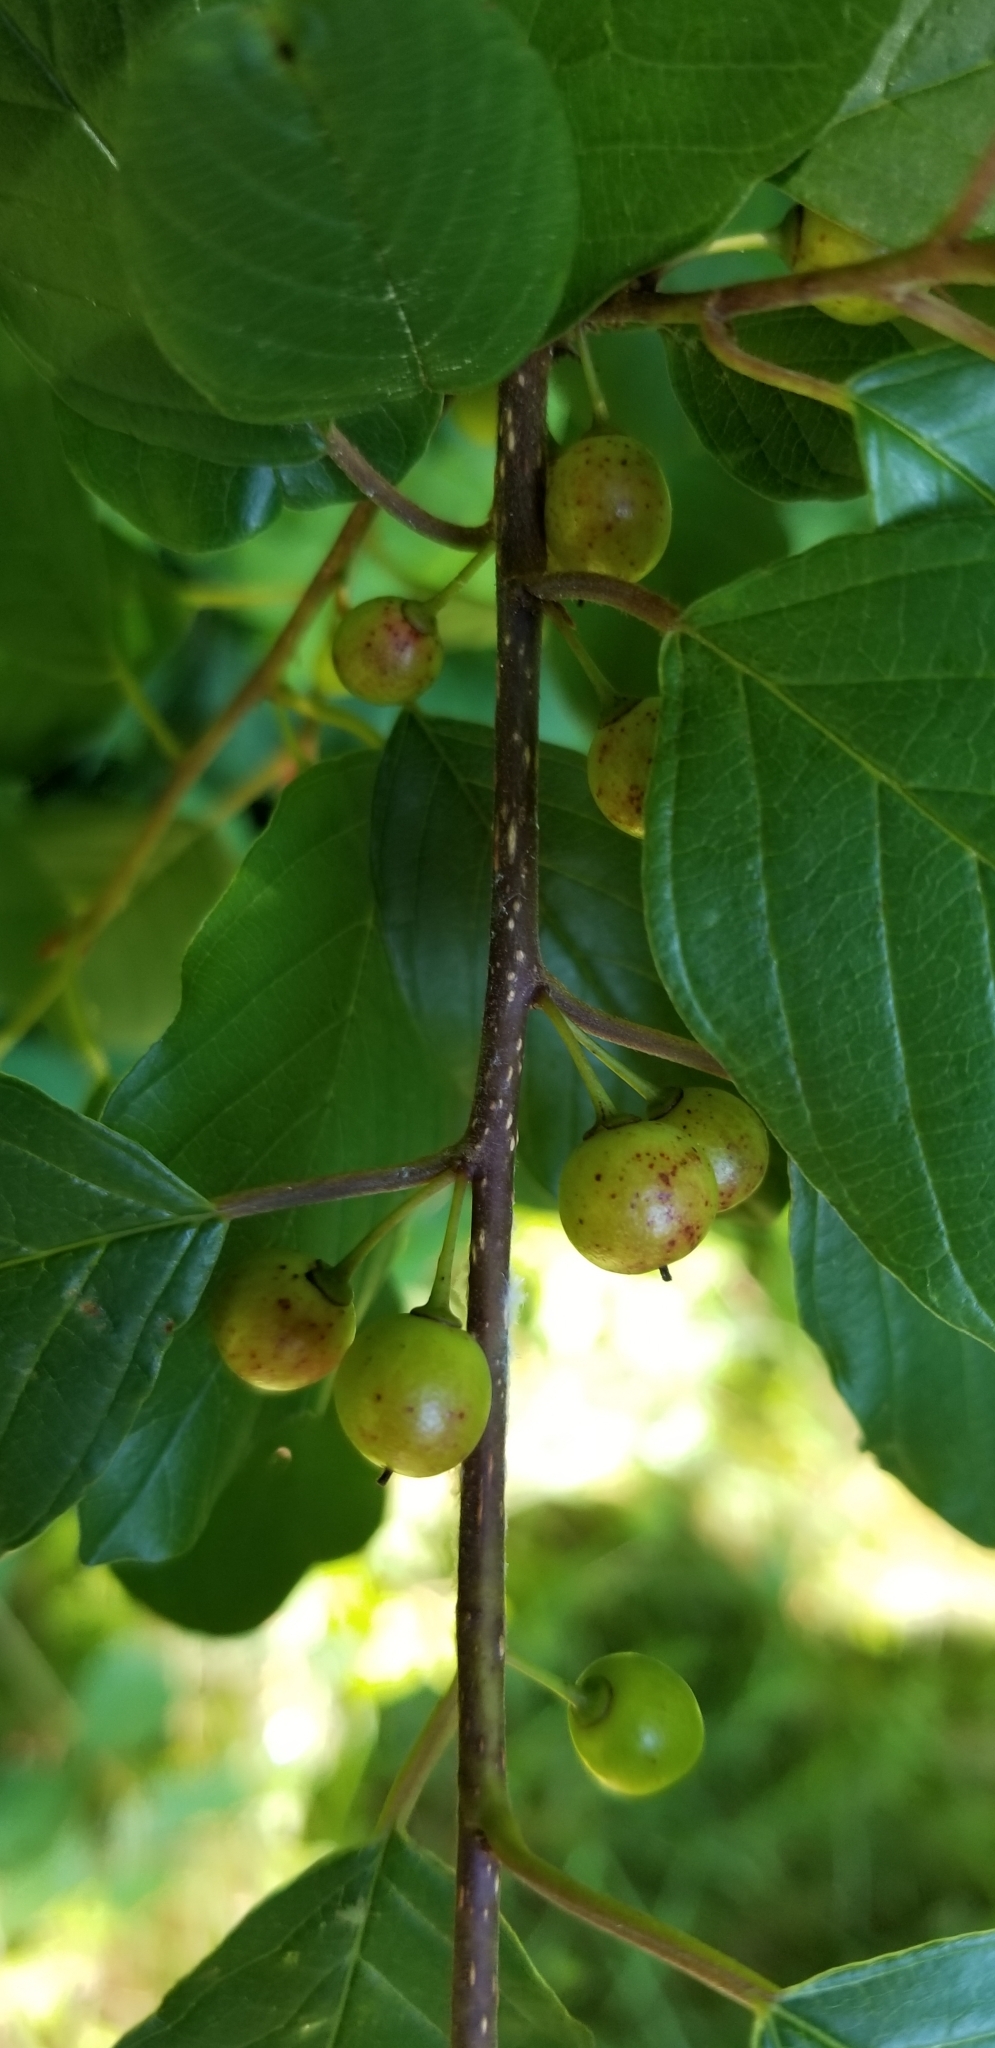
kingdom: Plantae
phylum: Tracheophyta
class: Magnoliopsida
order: Rosales
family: Rhamnaceae
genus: Frangula
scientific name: Frangula alnus
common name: Alder buckthorn
